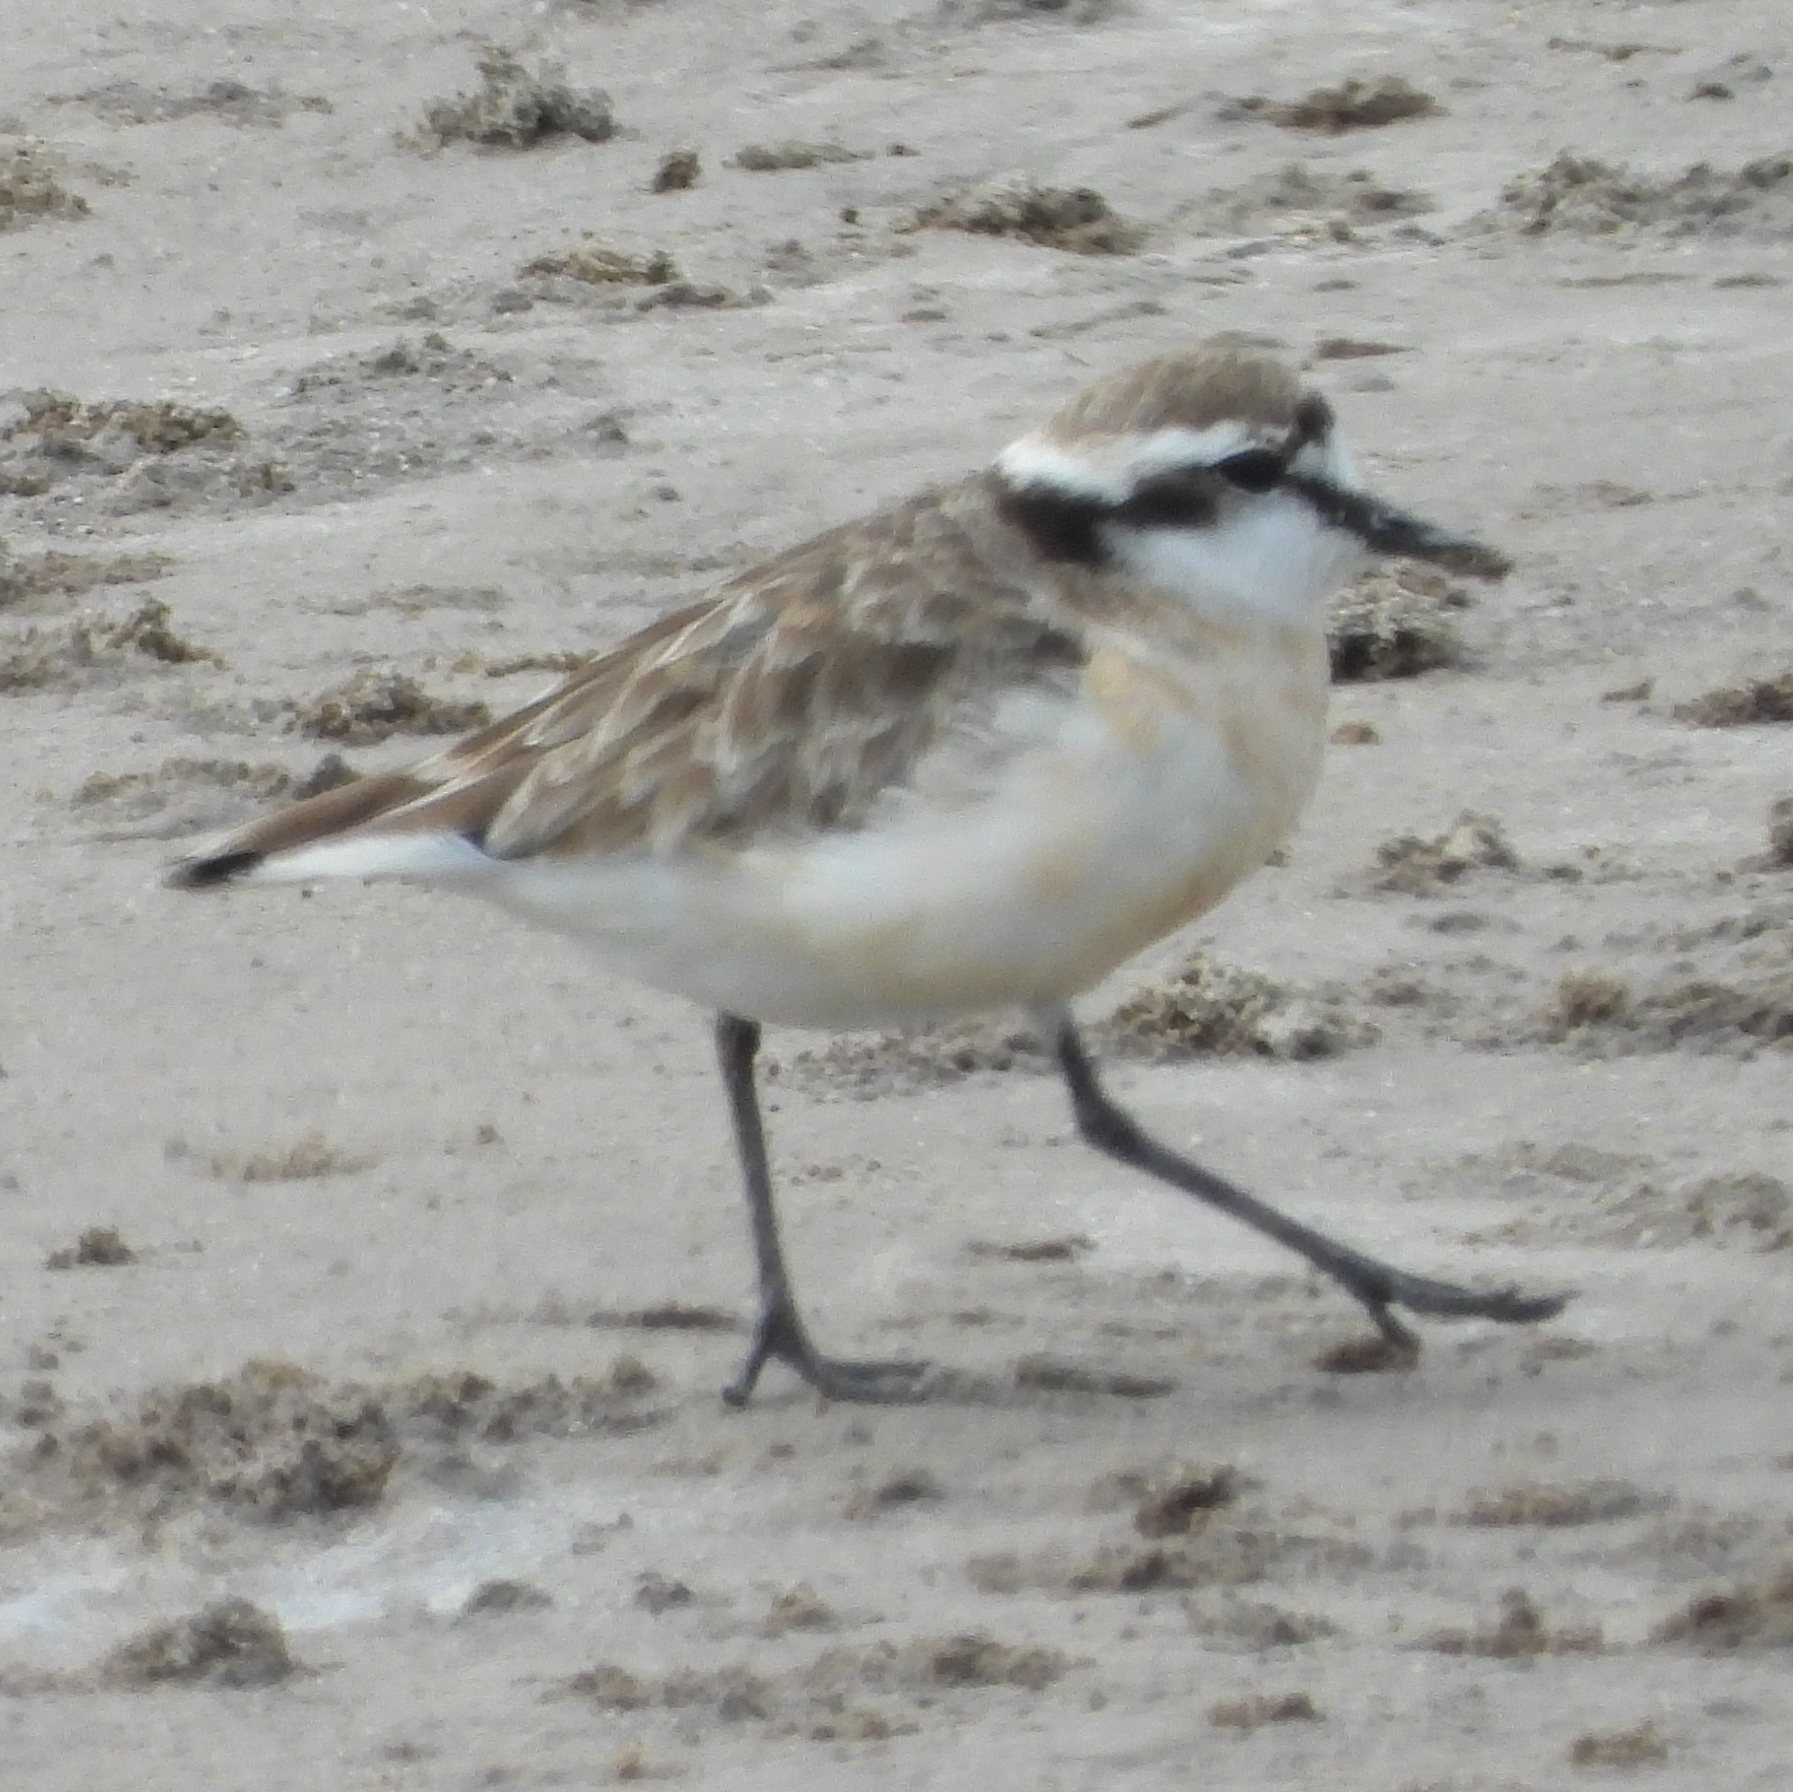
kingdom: Animalia
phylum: Chordata
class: Aves
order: Charadriiformes
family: Charadriidae
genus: Anarhynchus
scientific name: Anarhynchus
